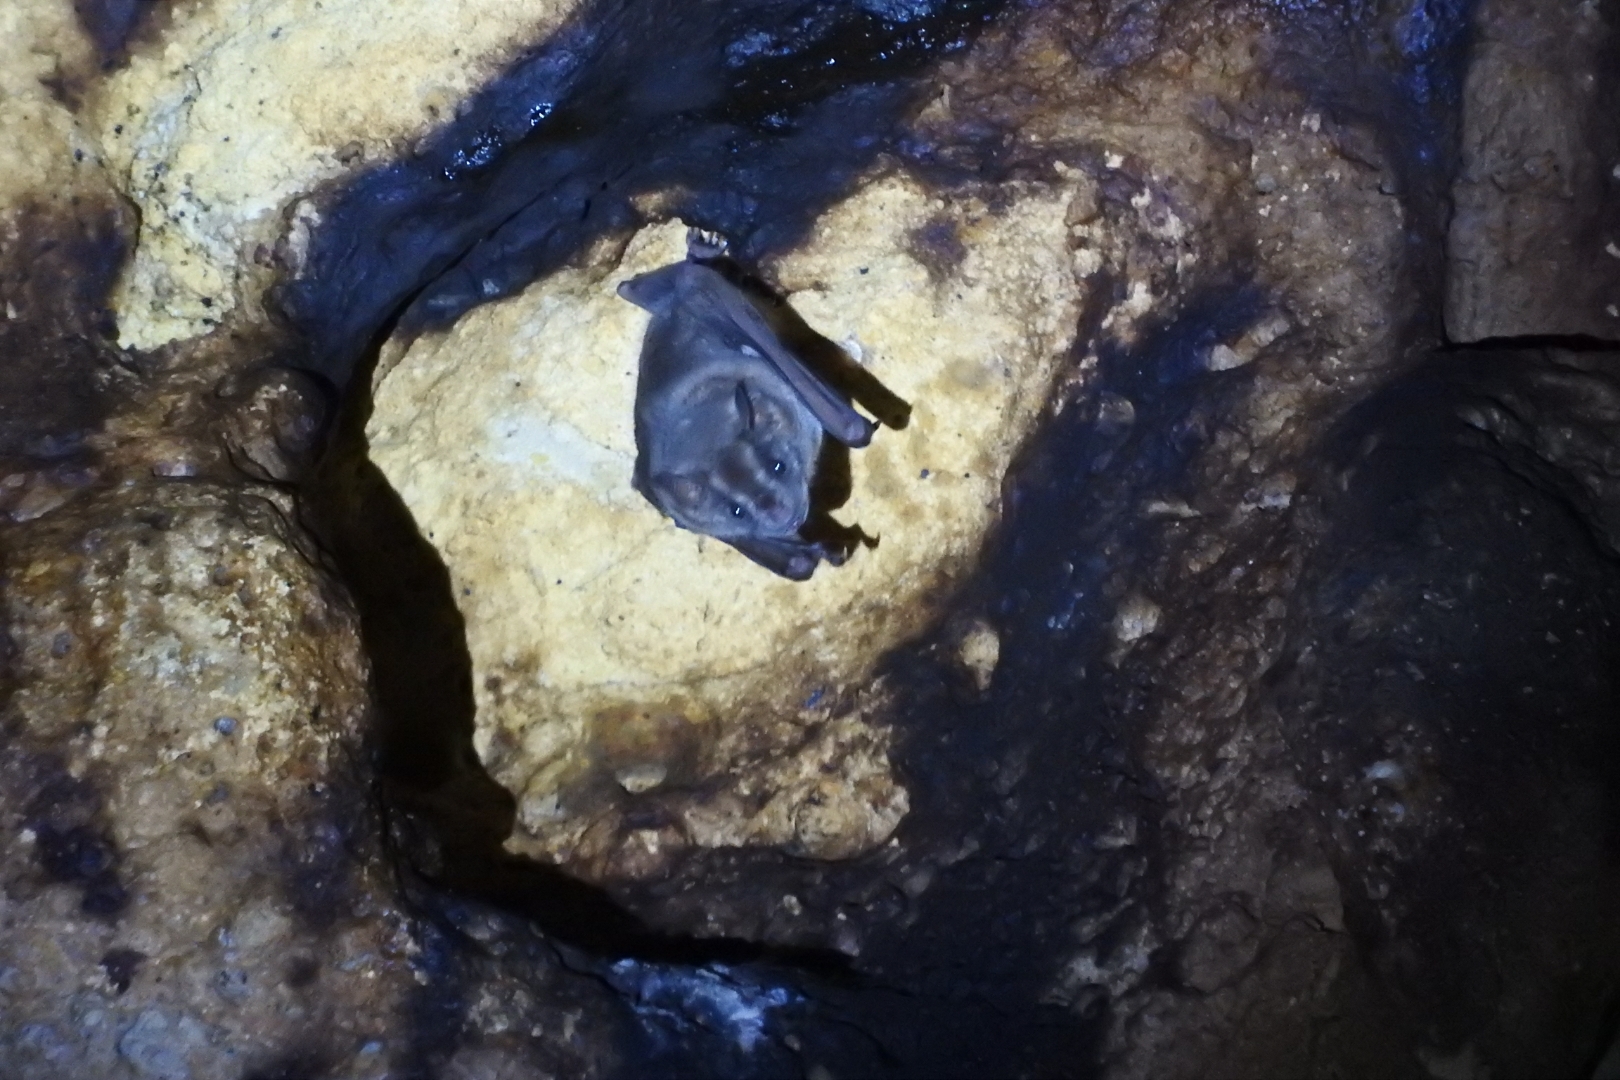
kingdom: Animalia
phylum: Chordata
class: Mammalia
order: Chiroptera
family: Phyllostomidae
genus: Artibeus
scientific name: Artibeus jamaicensis
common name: Jamaican fruit-eating bat
